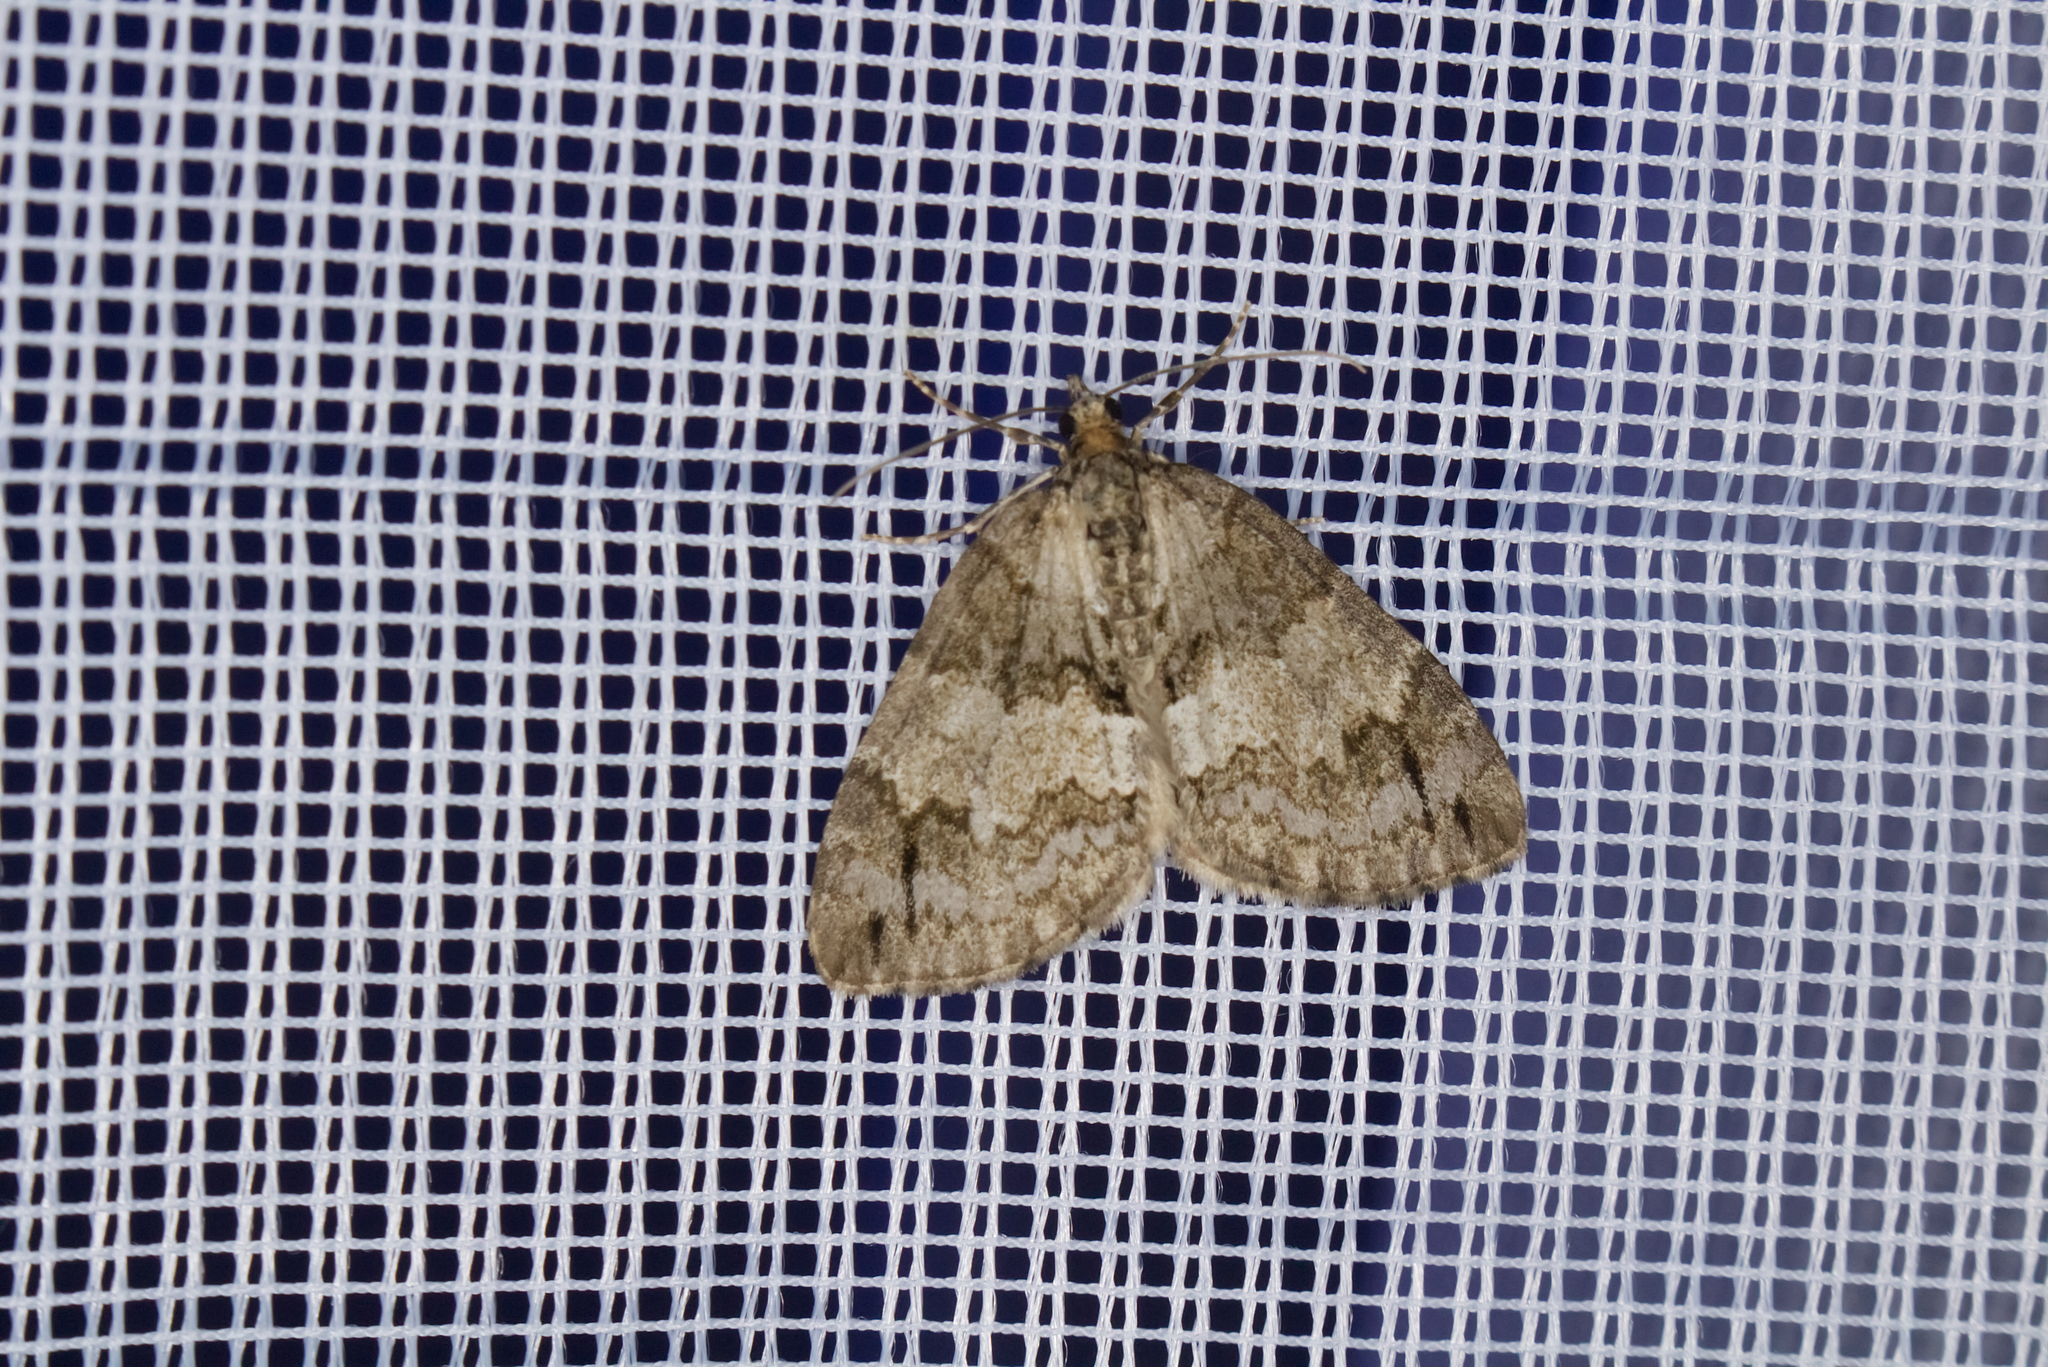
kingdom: Animalia
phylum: Arthropoda
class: Insecta
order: Lepidoptera
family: Geometridae
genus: Hydriomena
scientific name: Hydriomena impluviata
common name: May highflyer
